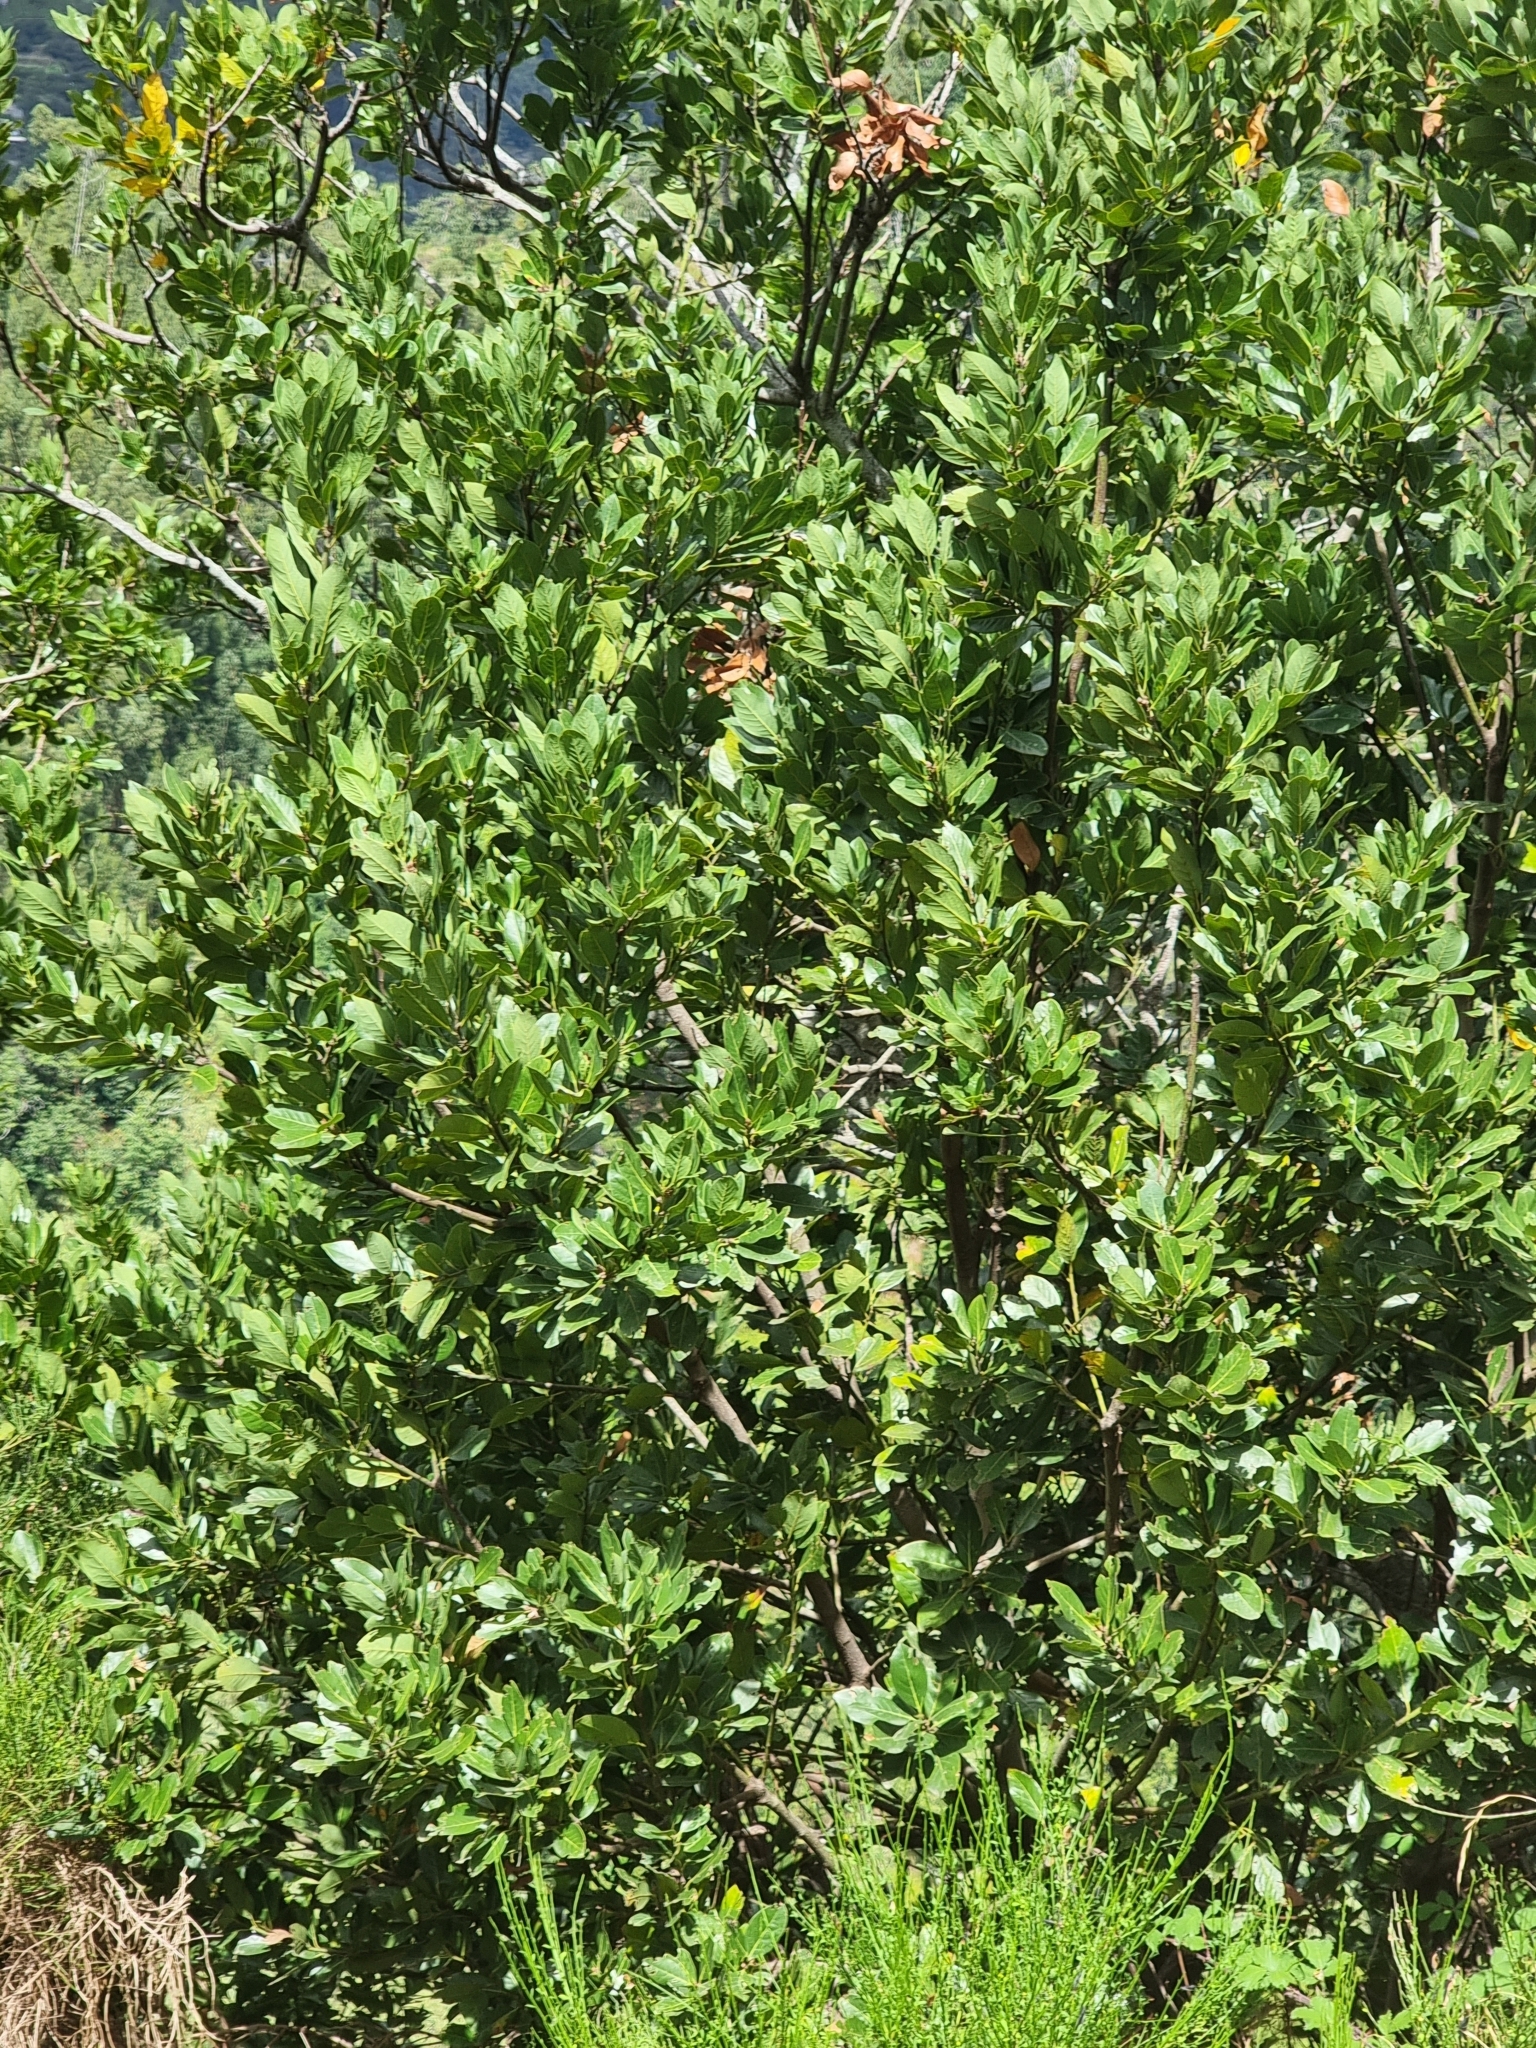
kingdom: Plantae
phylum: Tracheophyta
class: Magnoliopsida
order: Laurales
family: Lauraceae
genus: Laurus
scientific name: Laurus novocanariensis
